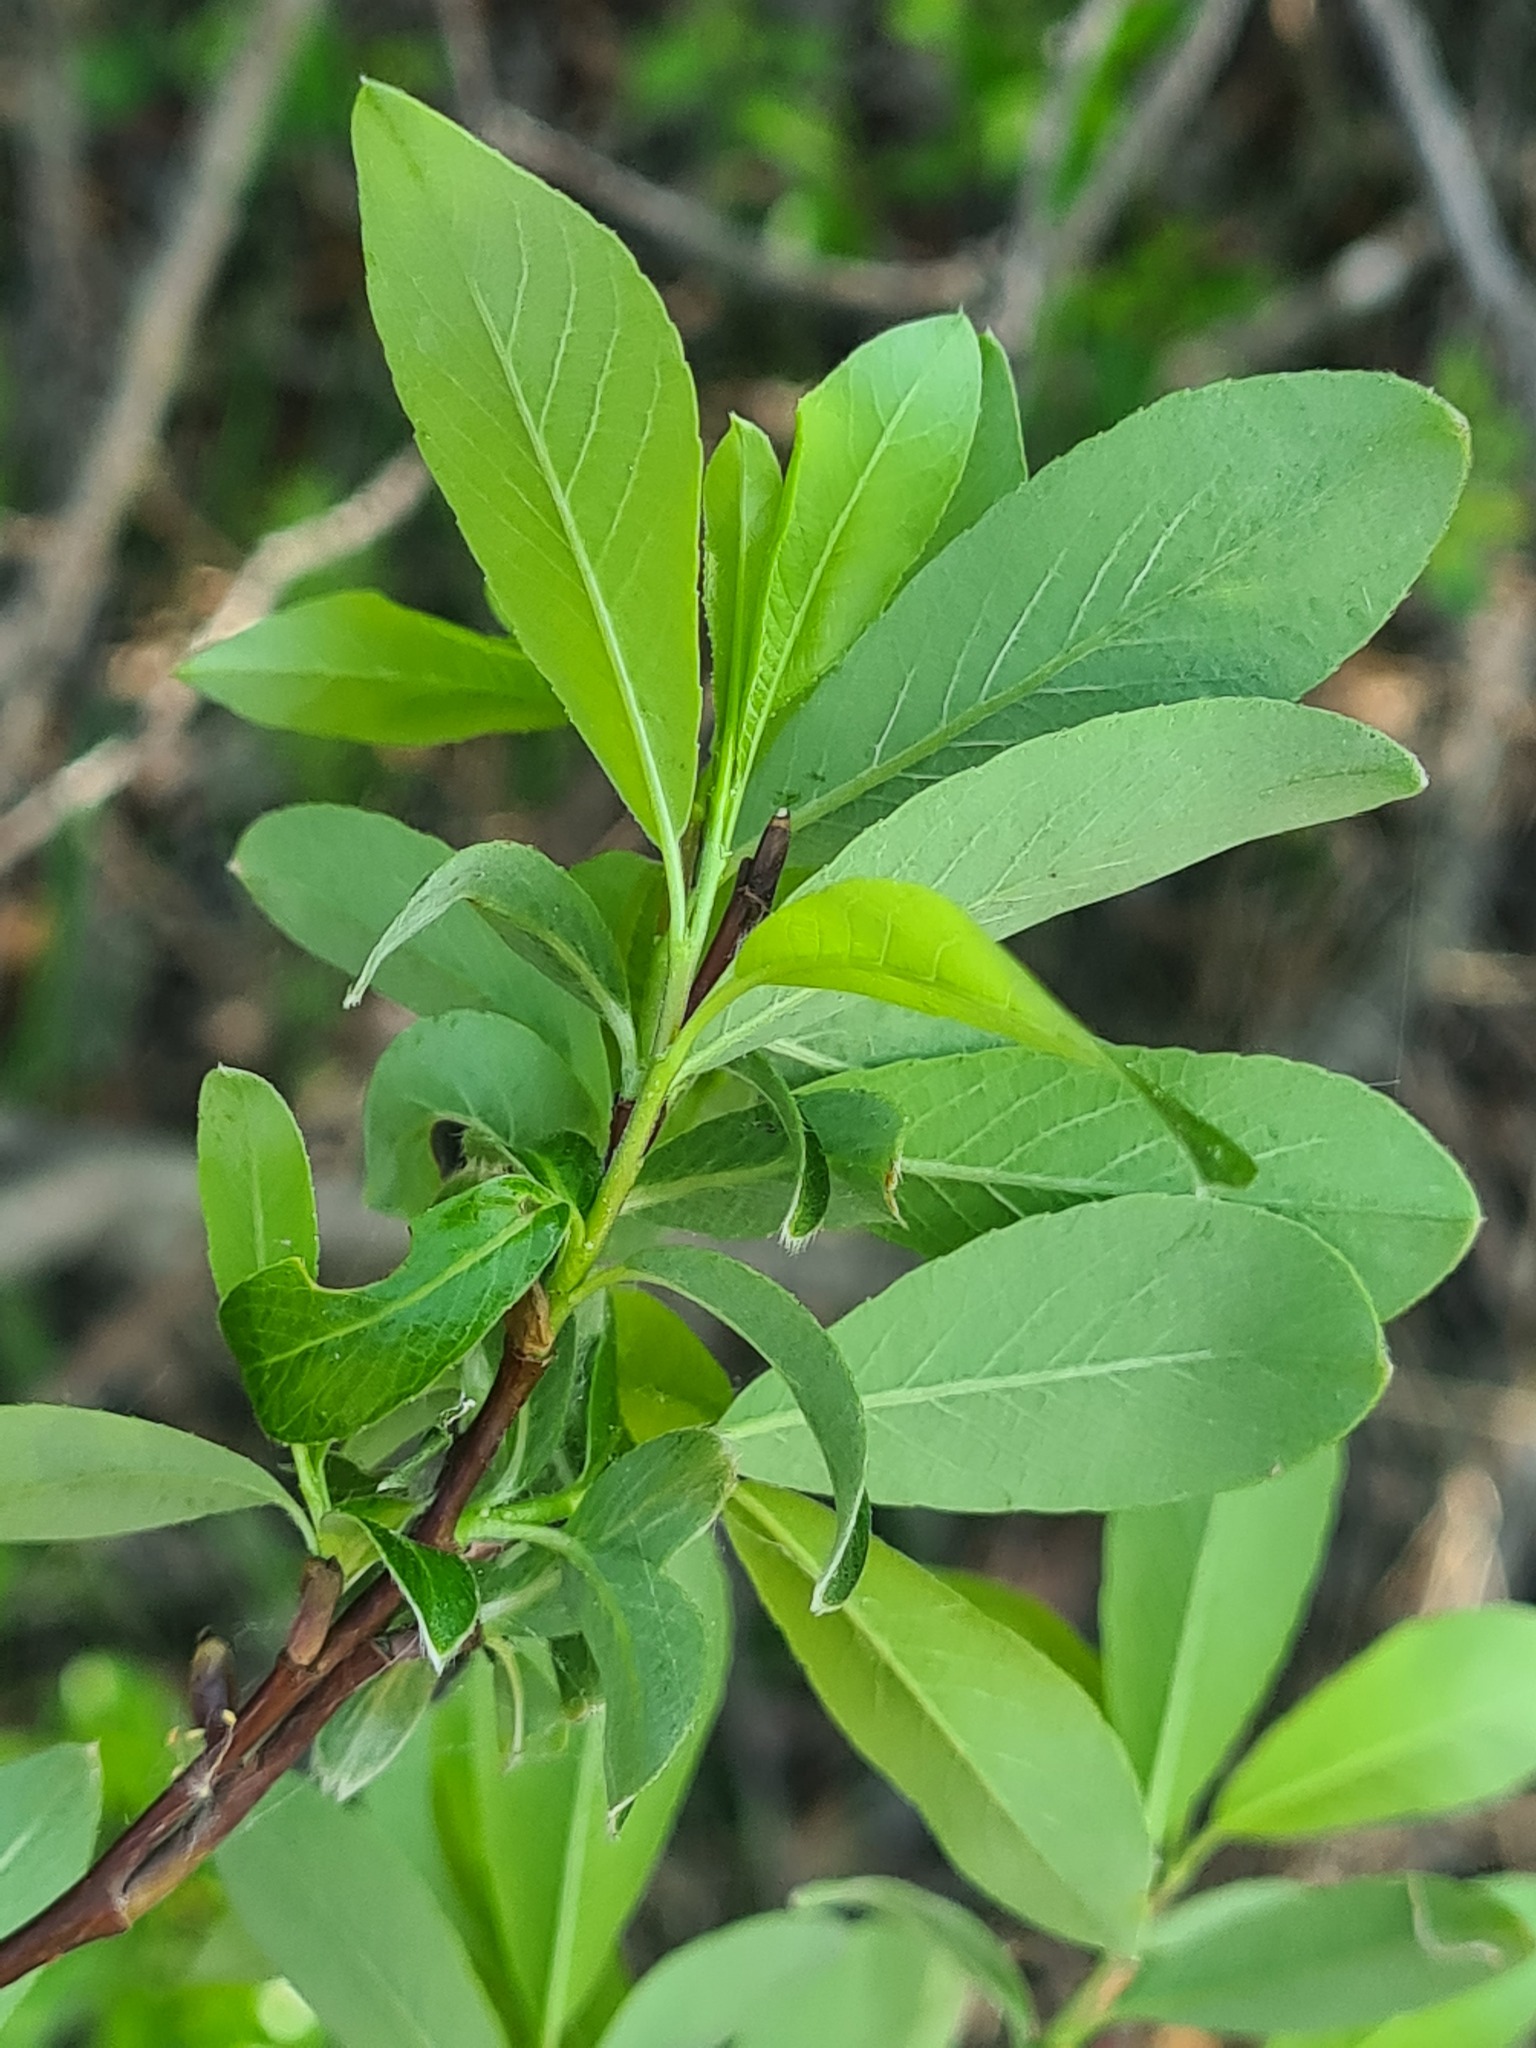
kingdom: Plantae
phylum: Tracheophyta
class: Magnoliopsida
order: Malpighiales
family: Salicaceae
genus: Salix
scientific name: Salix phylicifolia
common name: Tea-leaved willow
